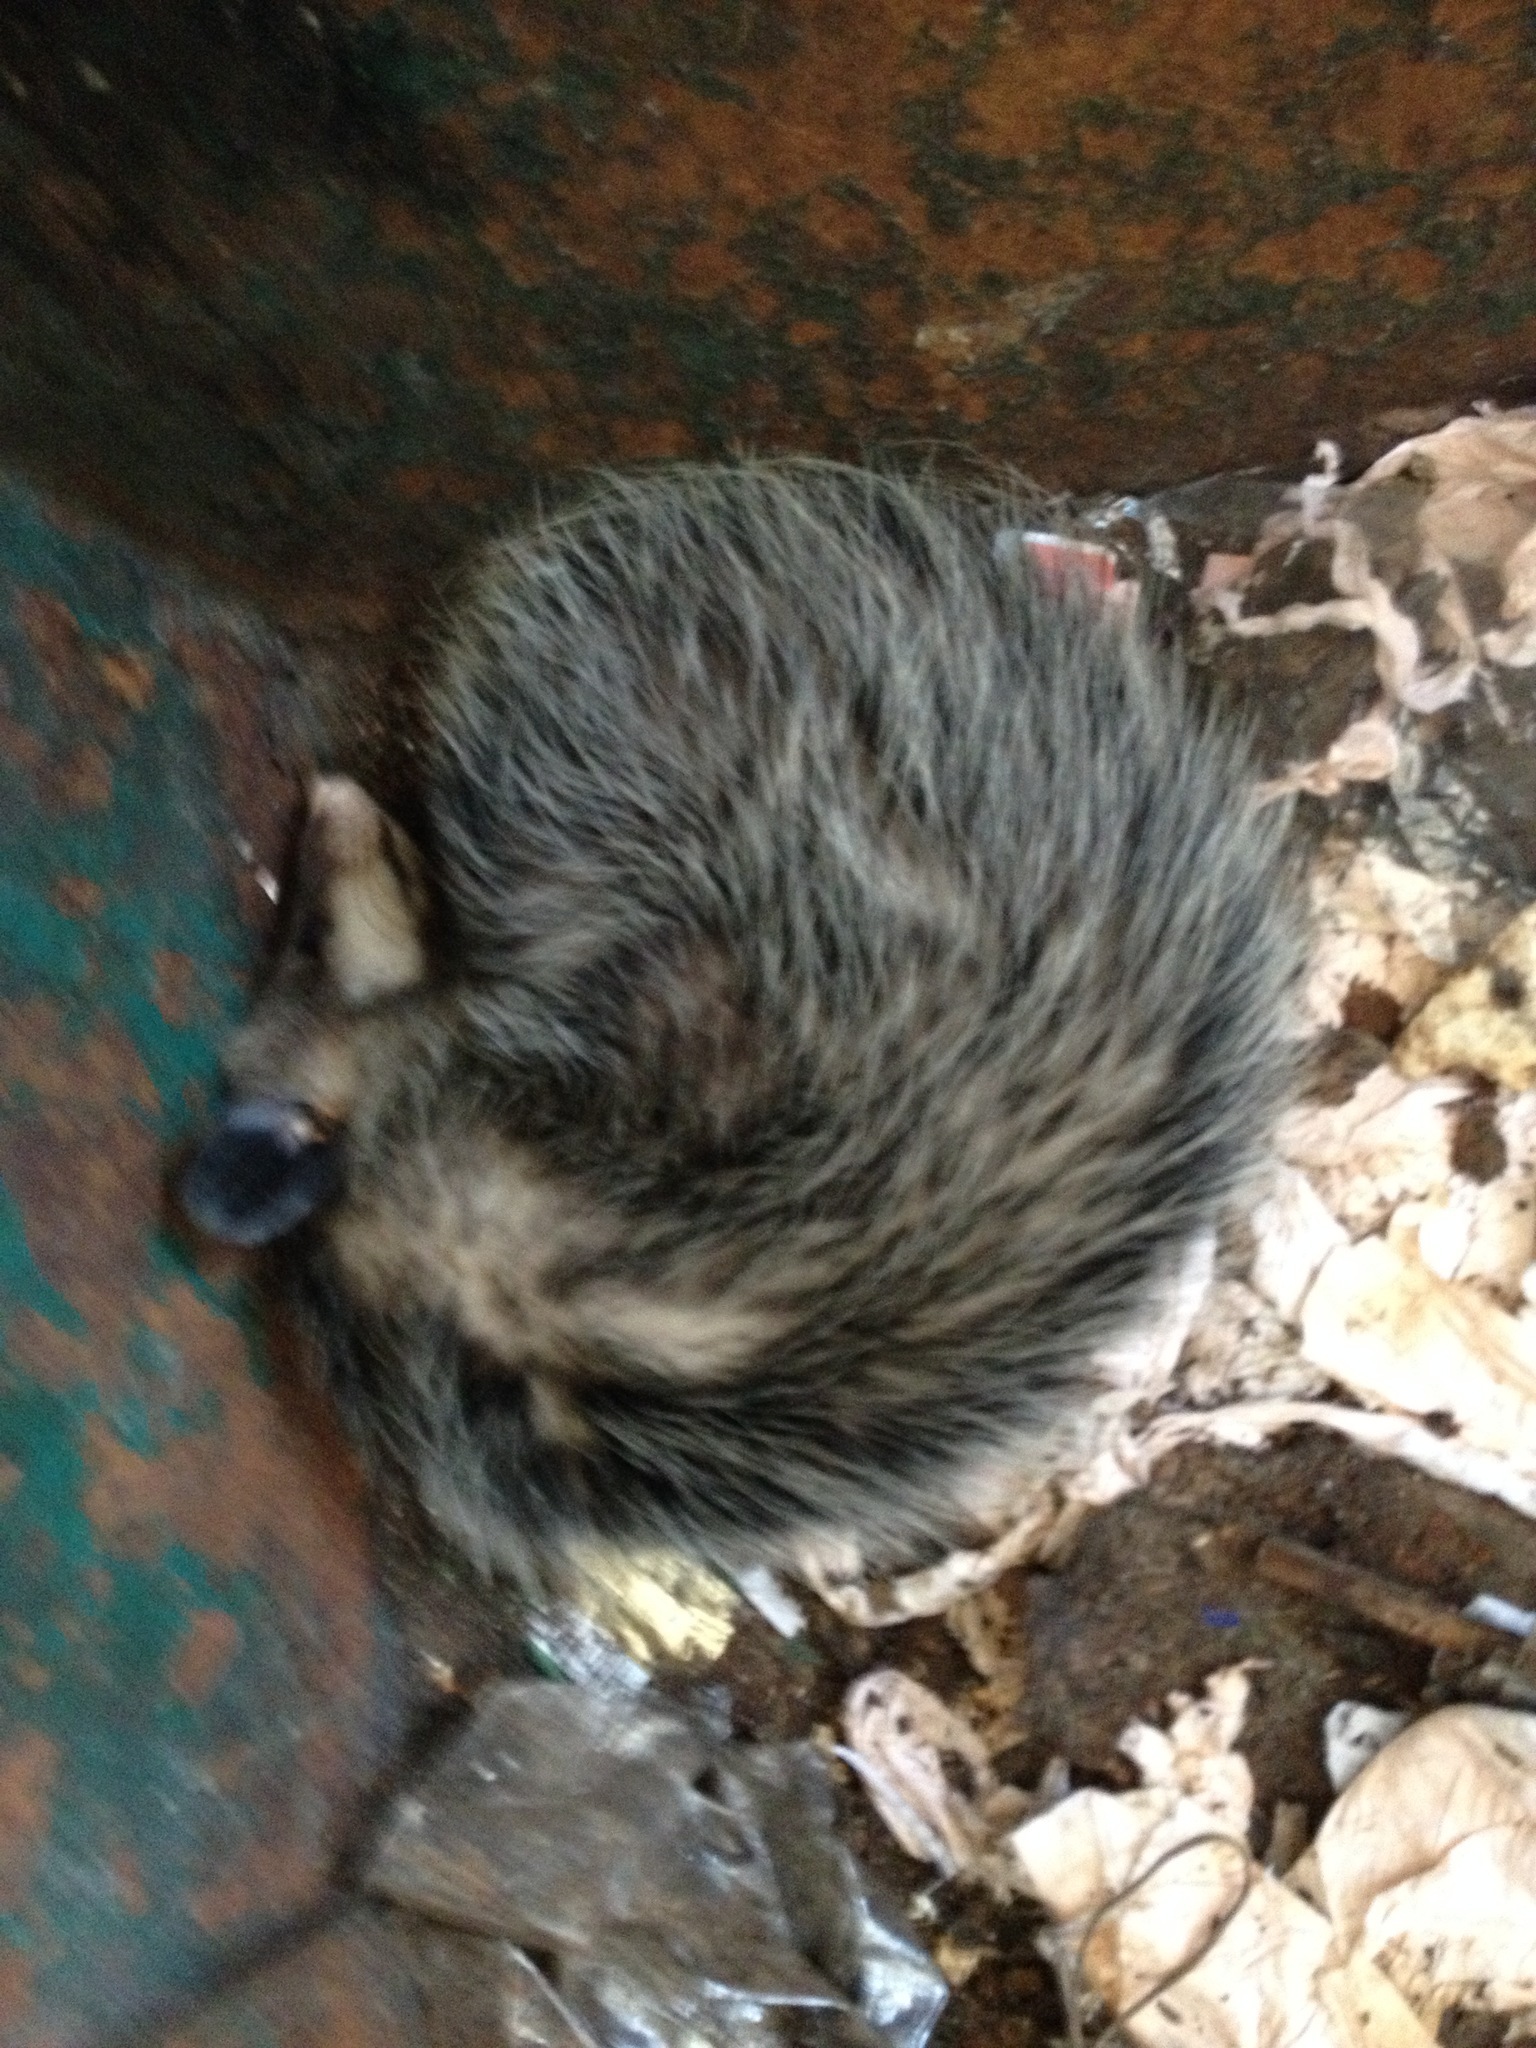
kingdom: Animalia
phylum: Chordata
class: Mammalia
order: Didelphimorphia
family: Didelphidae
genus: Didelphis
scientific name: Didelphis virginiana
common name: Virginia opossum
